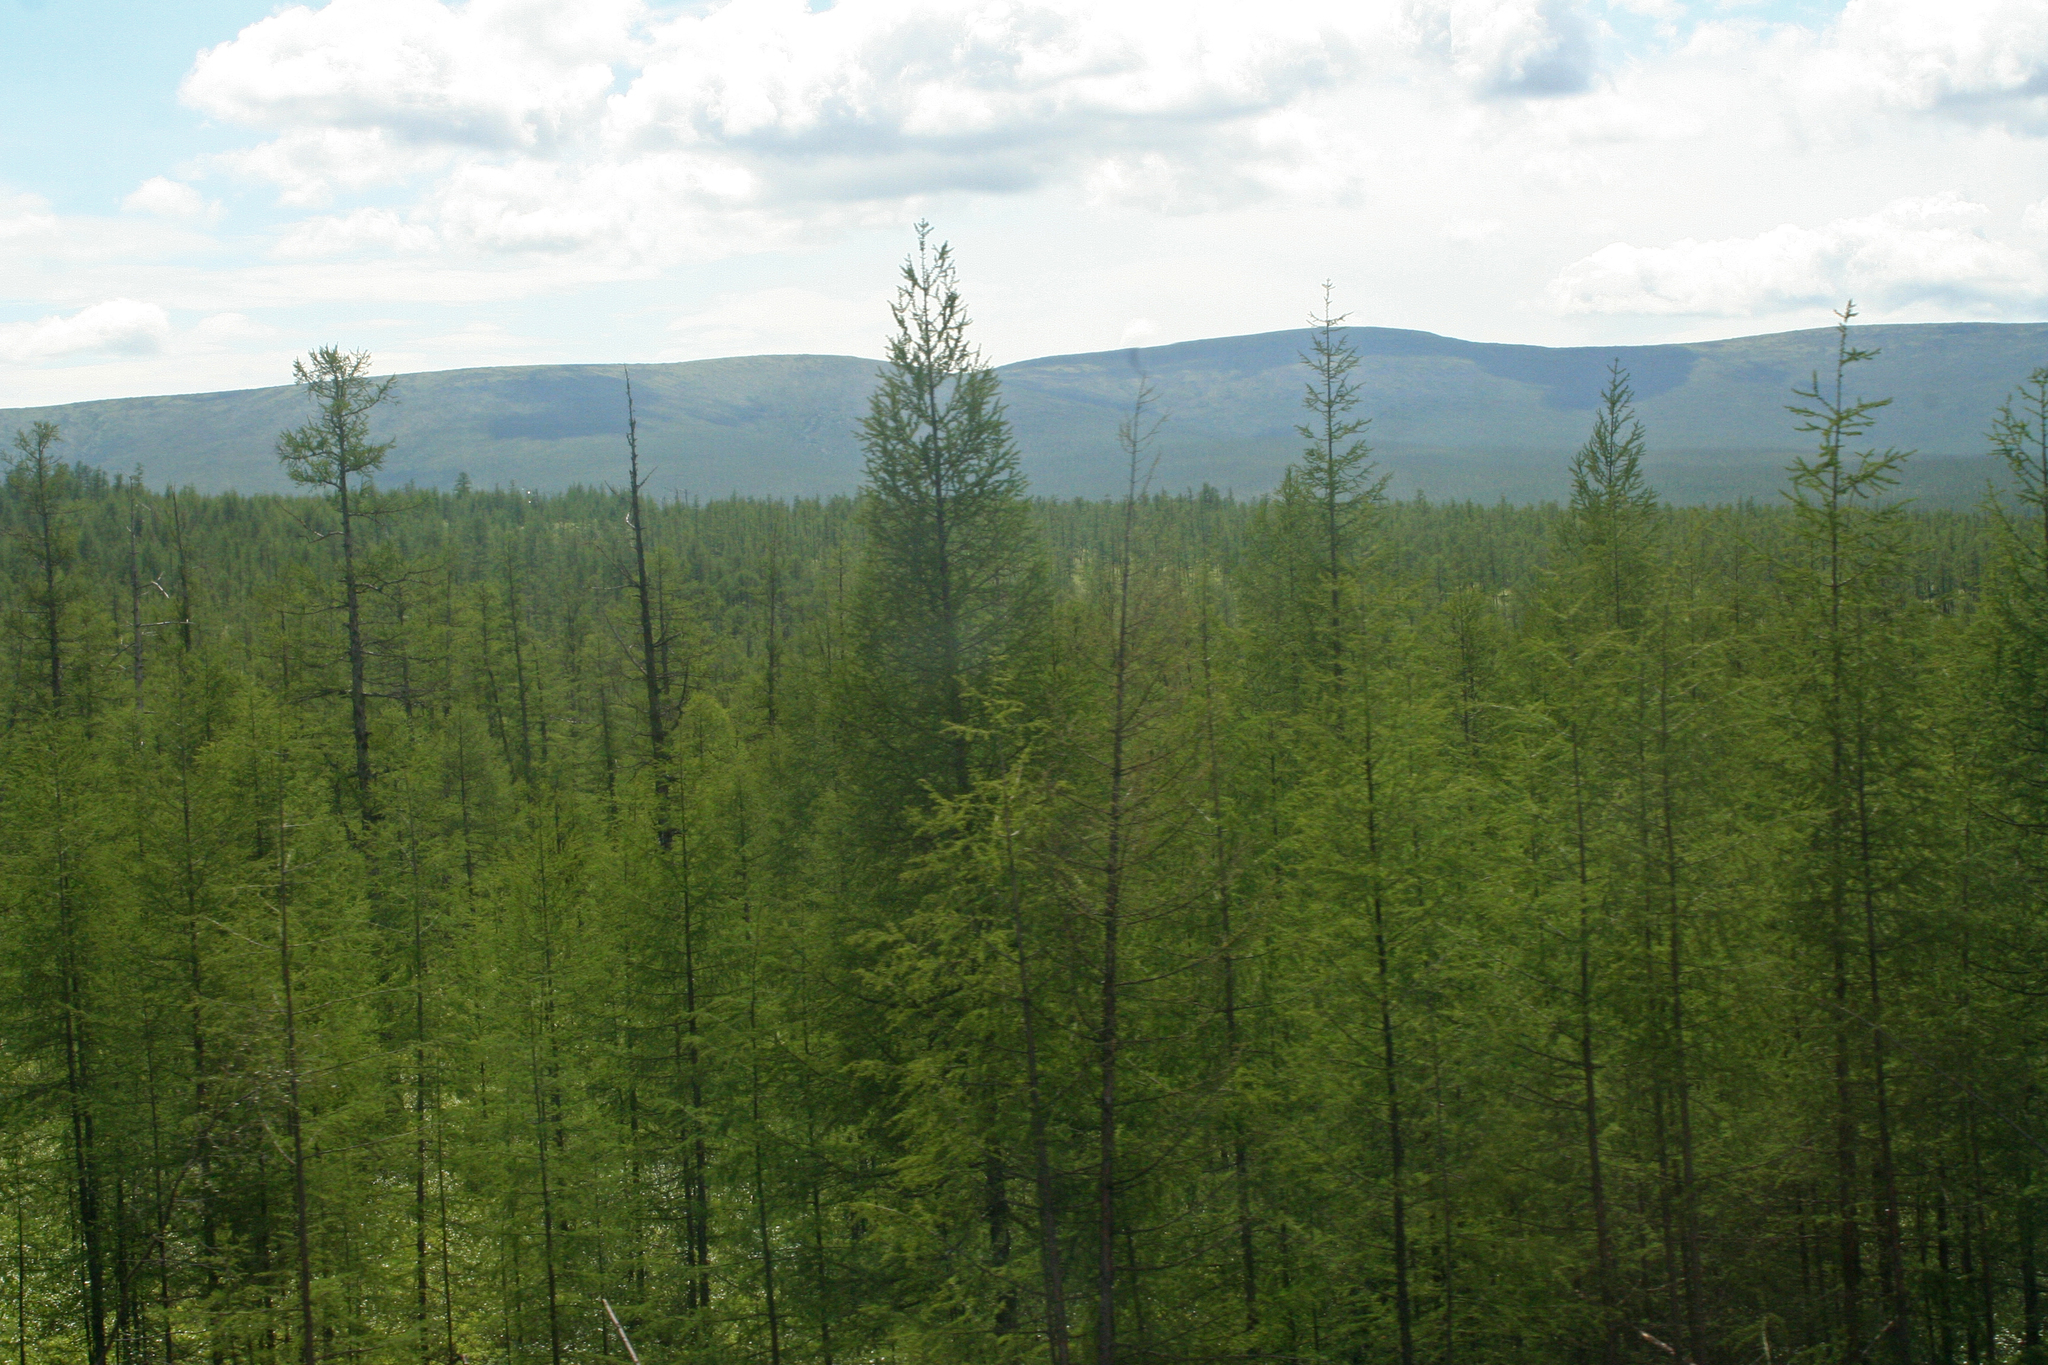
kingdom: Plantae
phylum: Tracheophyta
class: Pinopsida
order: Pinales
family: Pinaceae
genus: Larix
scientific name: Larix gmelinii
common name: Dahurian larch
